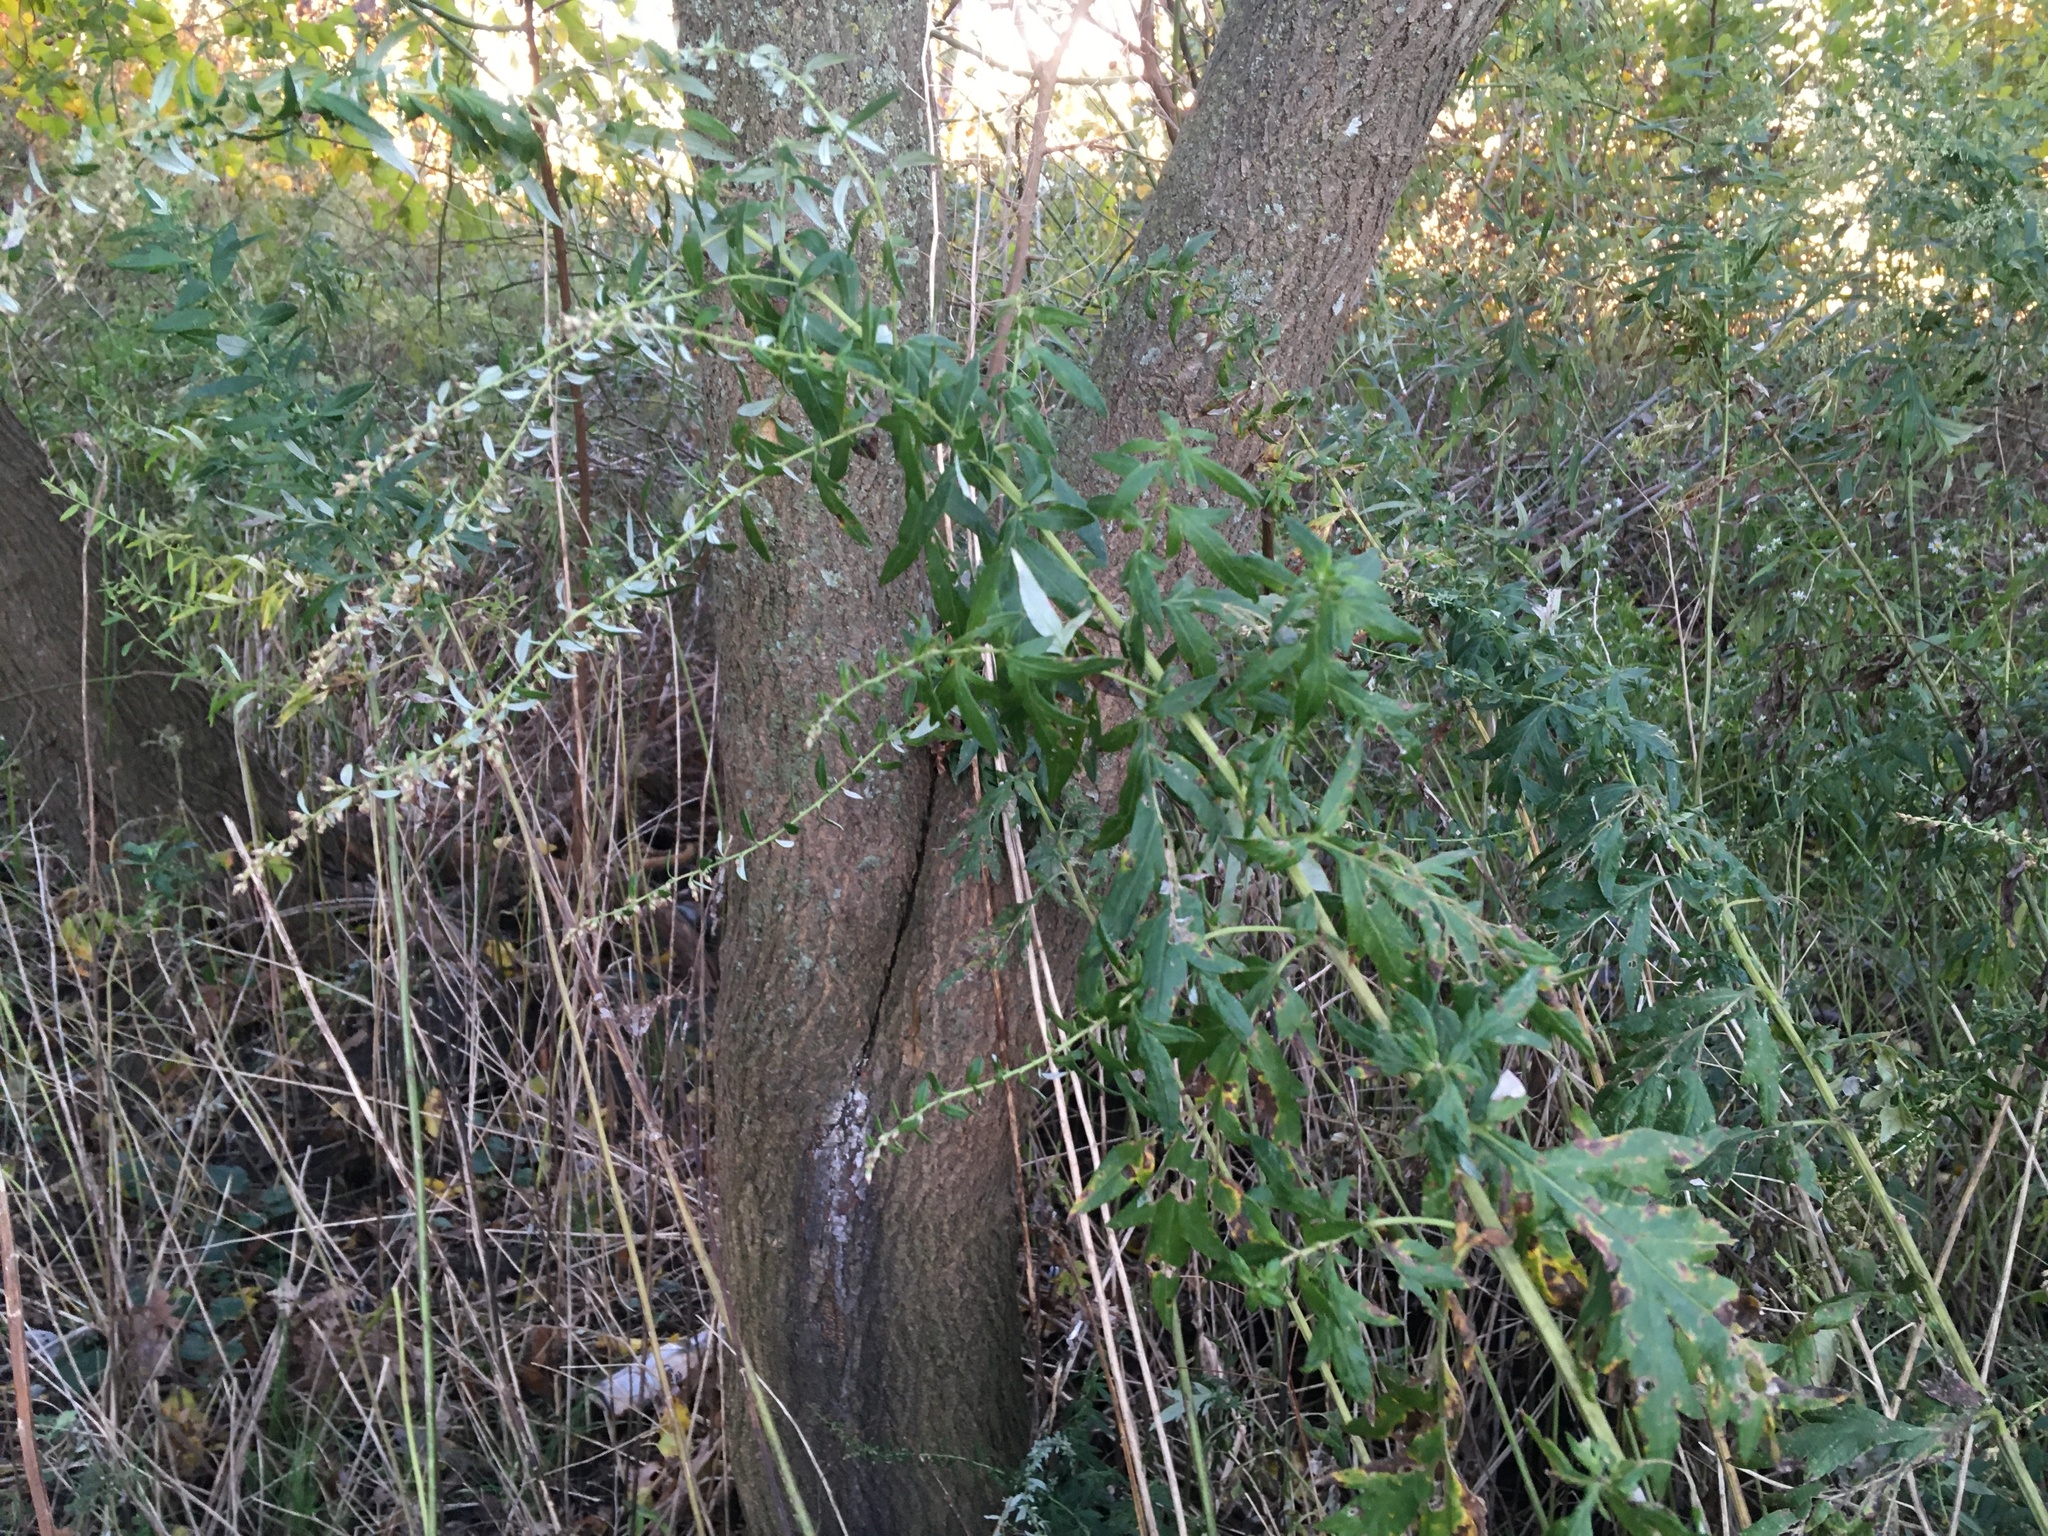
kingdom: Plantae
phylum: Tracheophyta
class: Magnoliopsida
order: Asterales
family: Asteraceae
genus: Artemisia
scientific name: Artemisia vulgaris
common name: Mugwort
